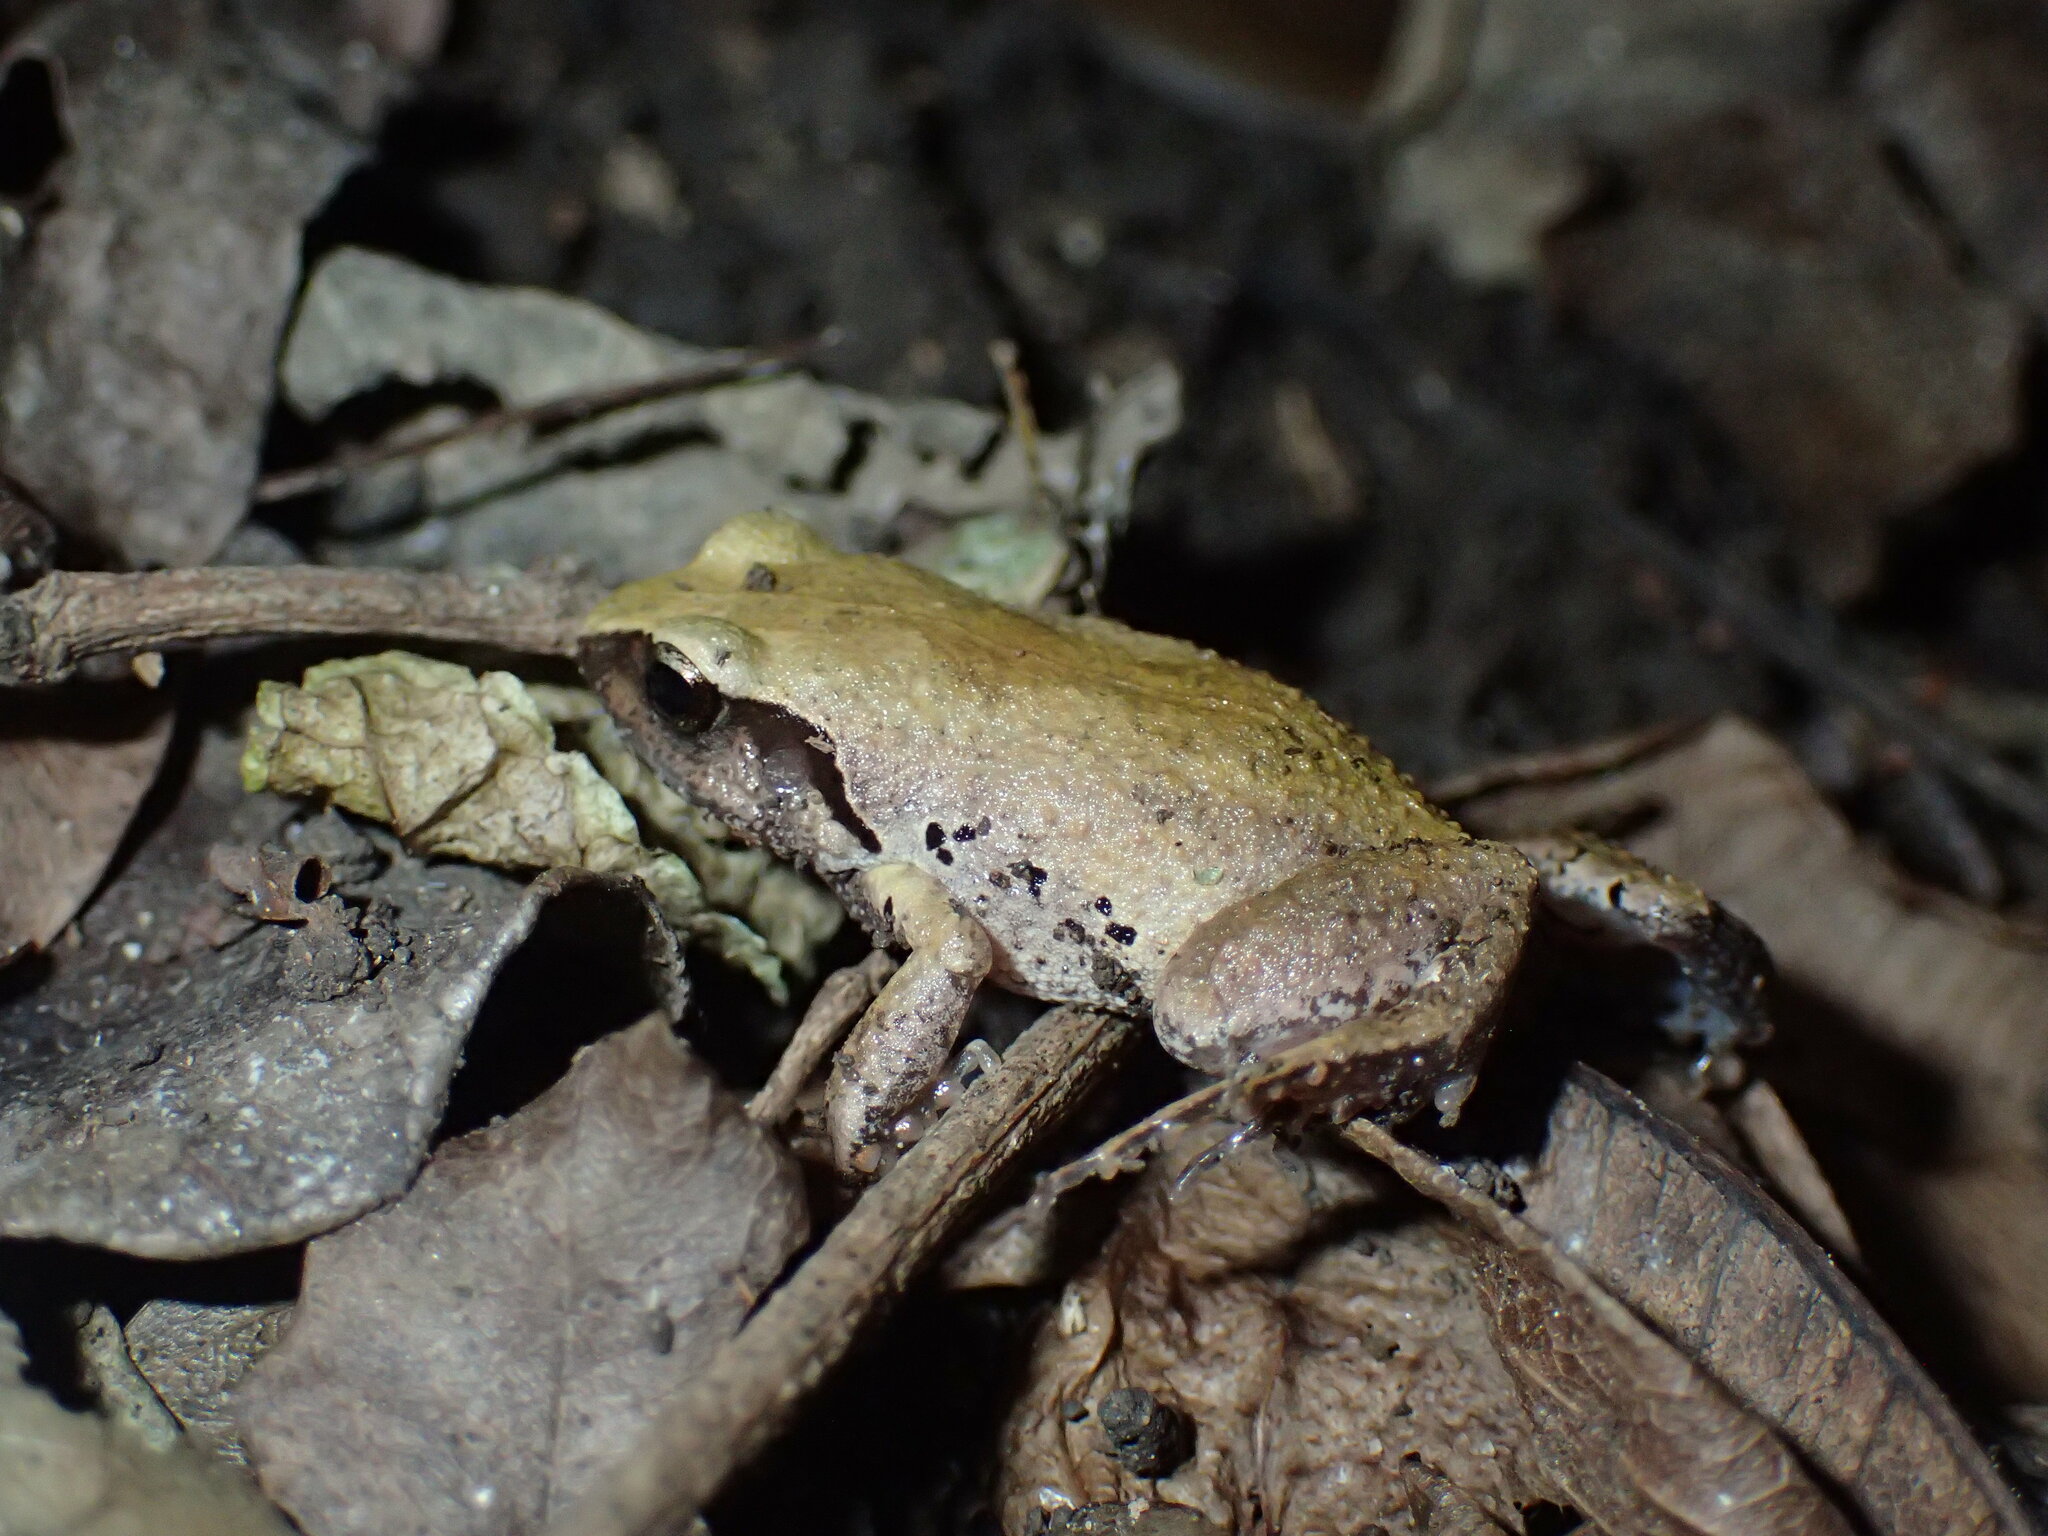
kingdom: Animalia
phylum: Chordata
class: Amphibia
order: Anura
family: Arthroleptidae
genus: Arthroleptis
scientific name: Arthroleptis wahlbergii
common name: Bush squeaker
